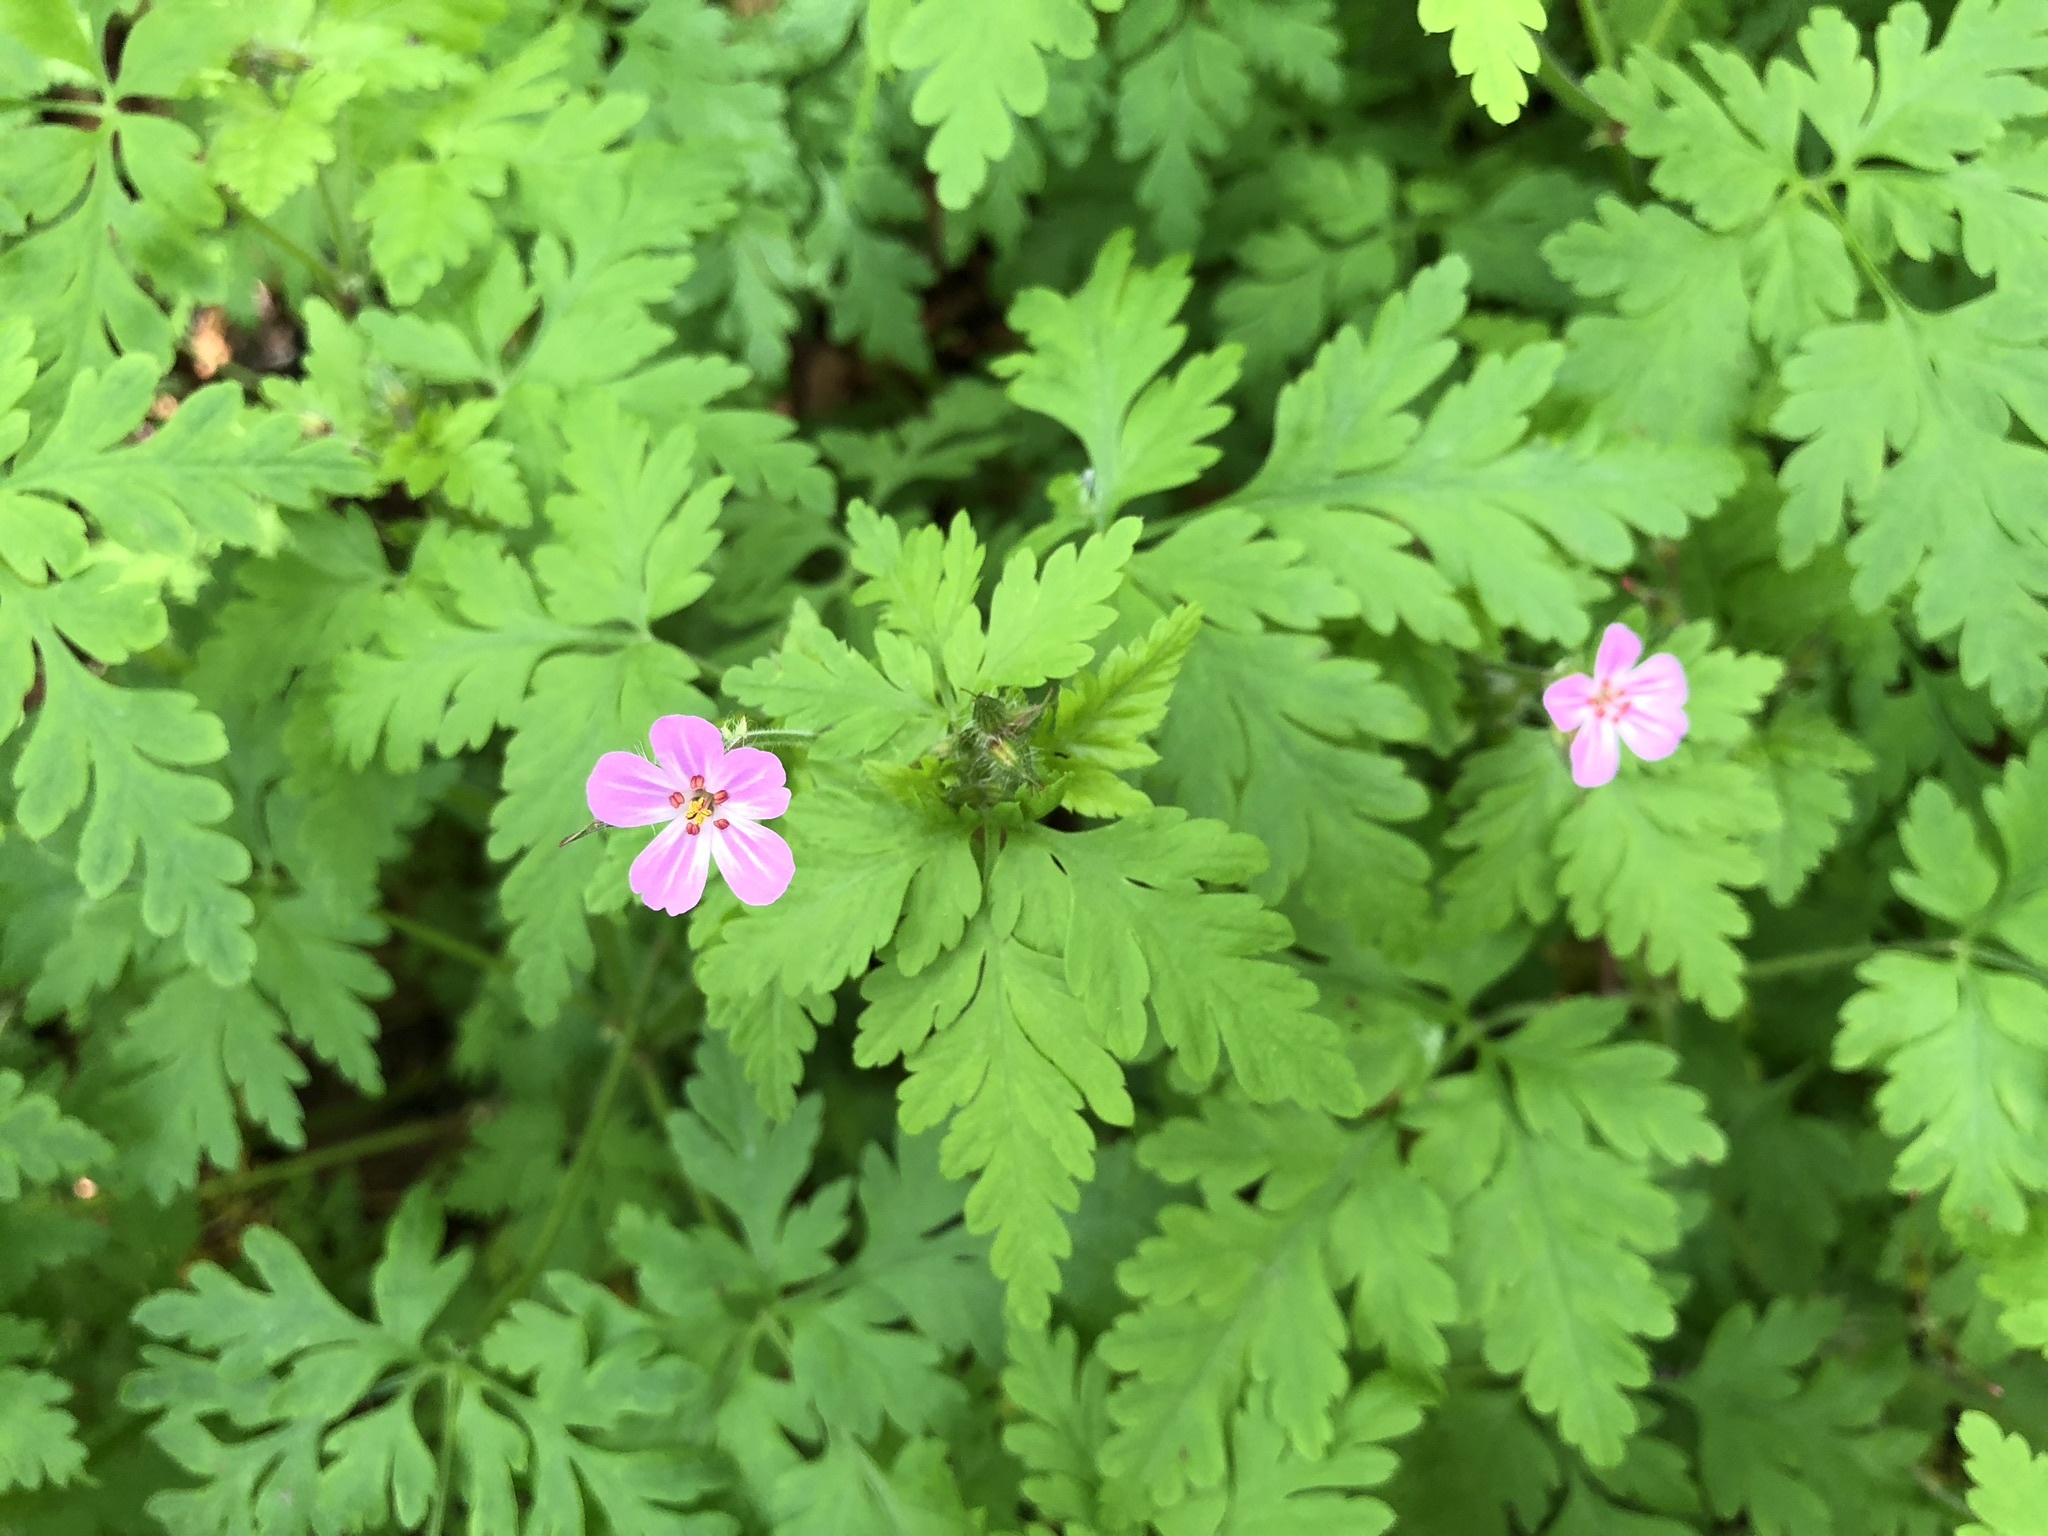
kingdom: Plantae
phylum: Tracheophyta
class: Magnoliopsida
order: Geraniales
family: Geraniaceae
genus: Geranium
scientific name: Geranium robertianum
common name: Herb-robert
